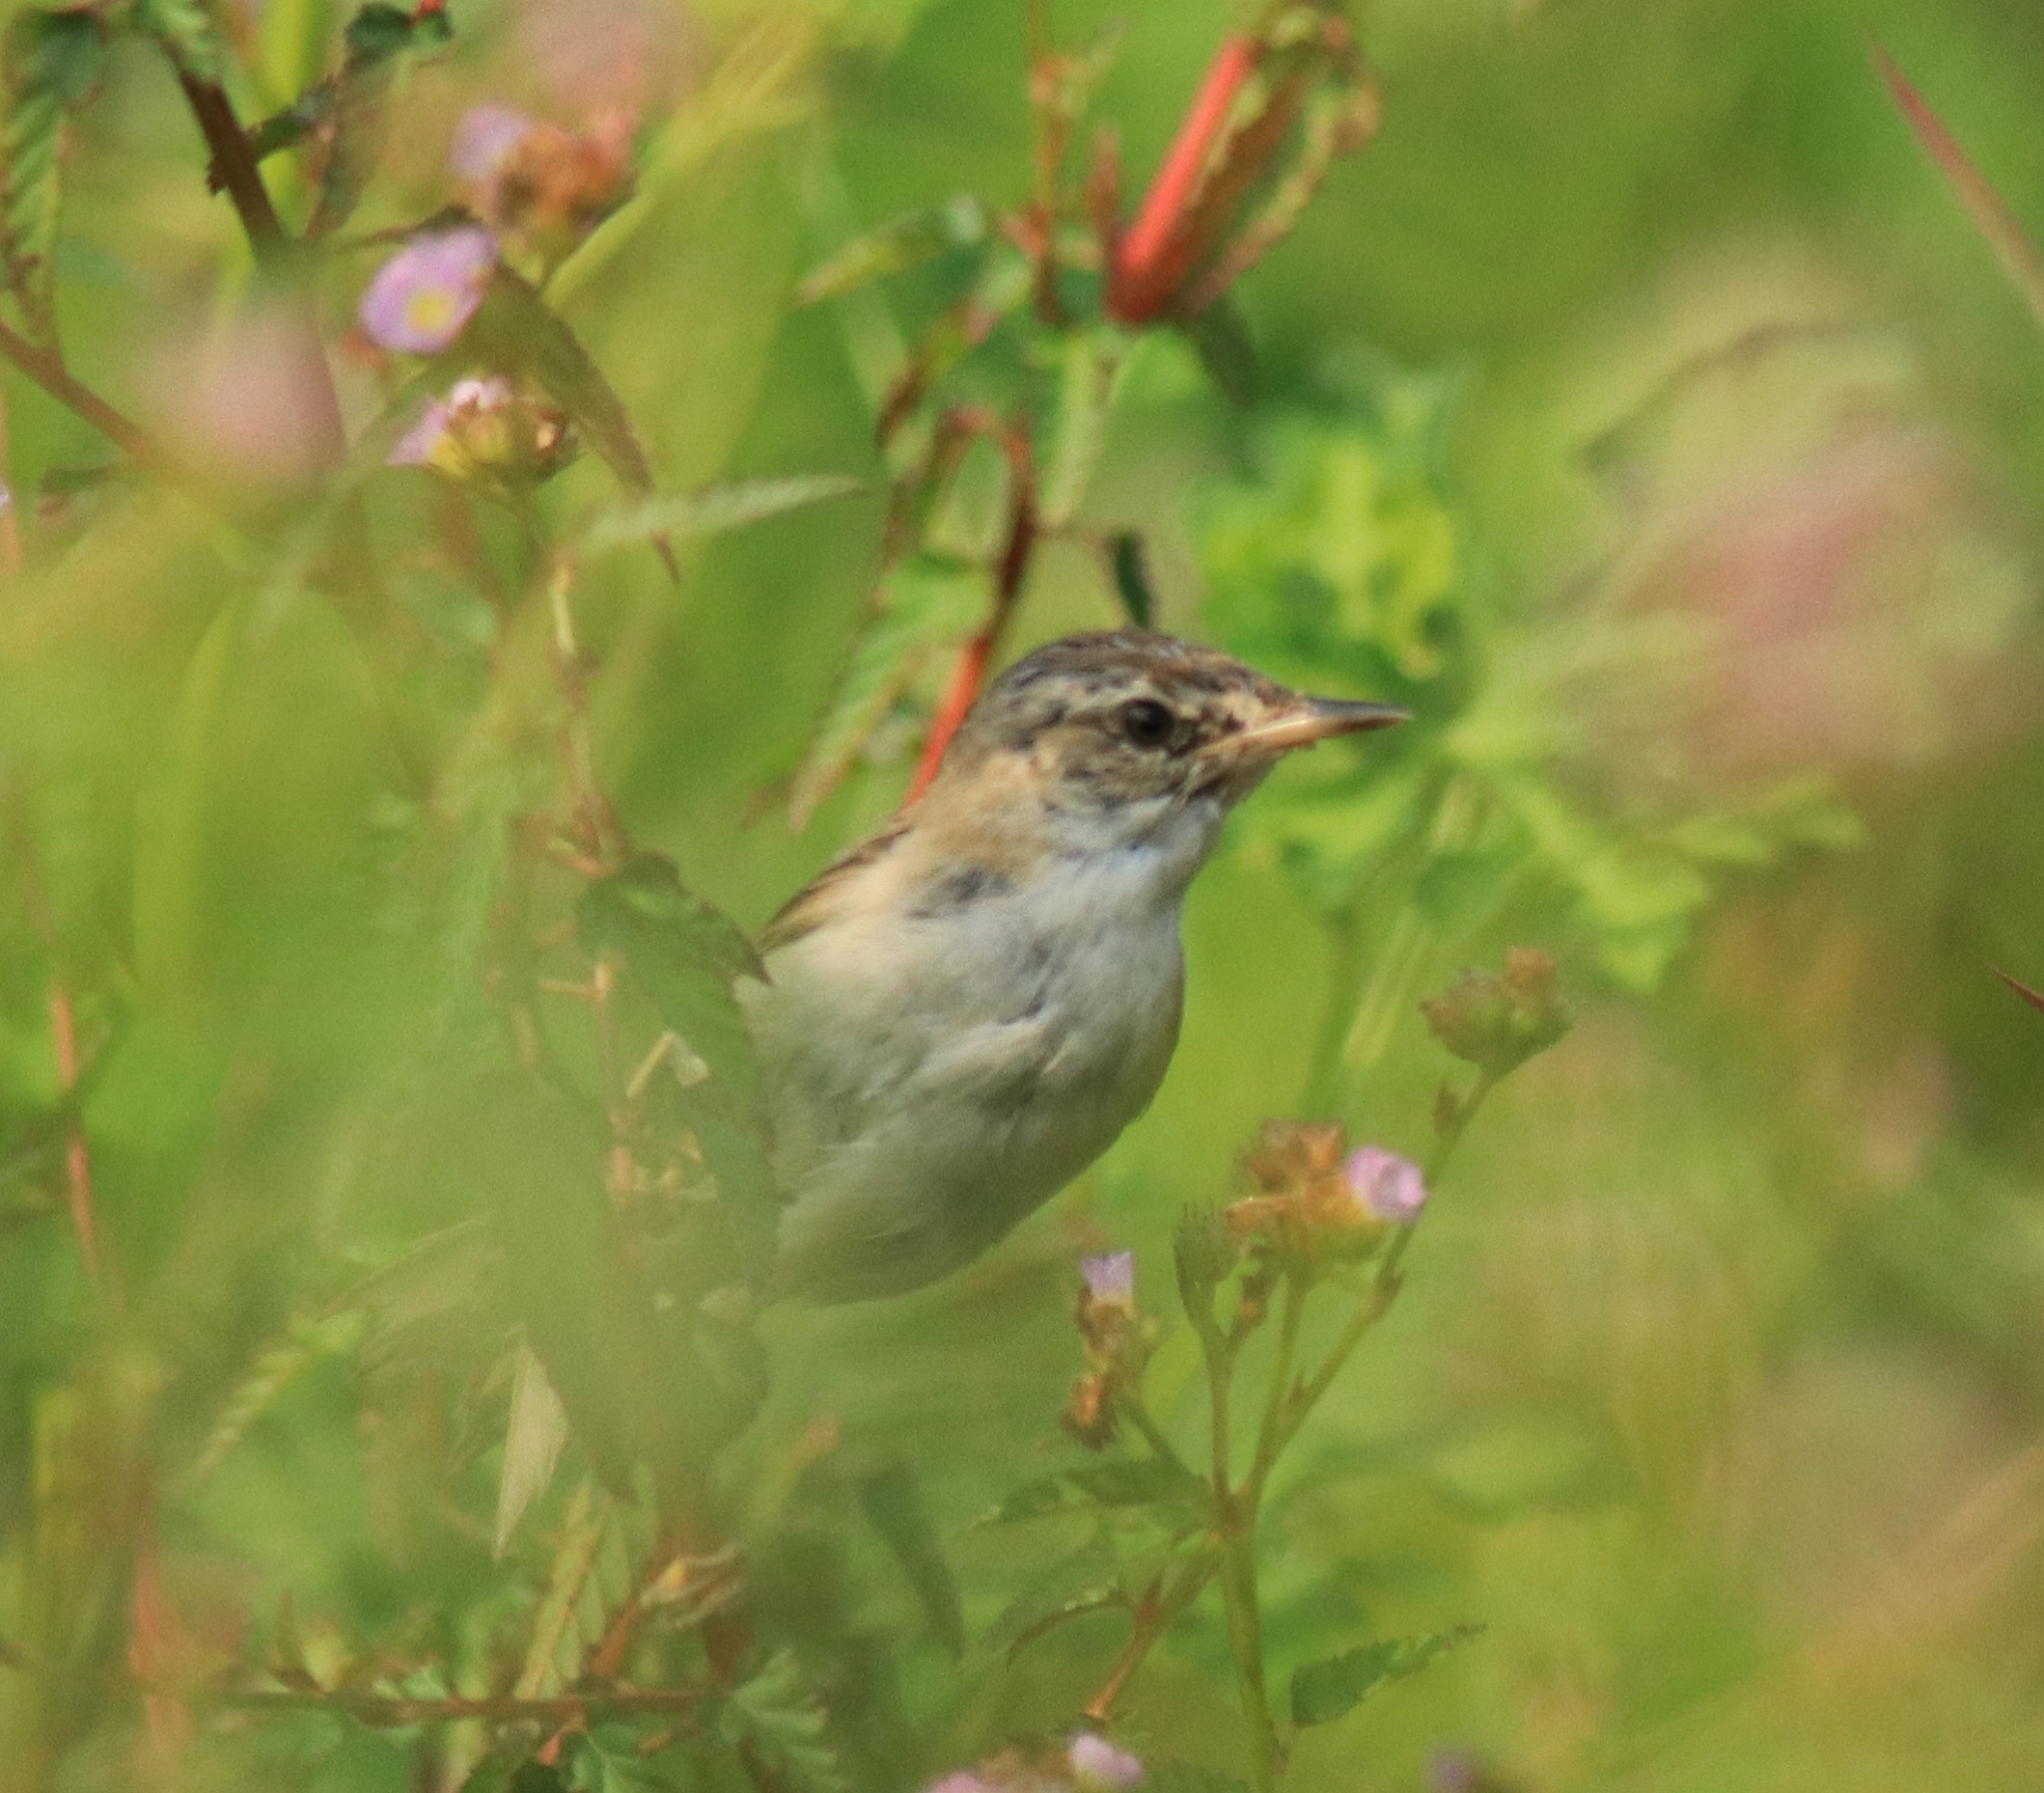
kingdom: Animalia
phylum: Chordata
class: Aves
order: Passeriformes
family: Acrocephalidae
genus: Acrocephalus
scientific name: Acrocephalus agricola
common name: Paddyfield warbler
